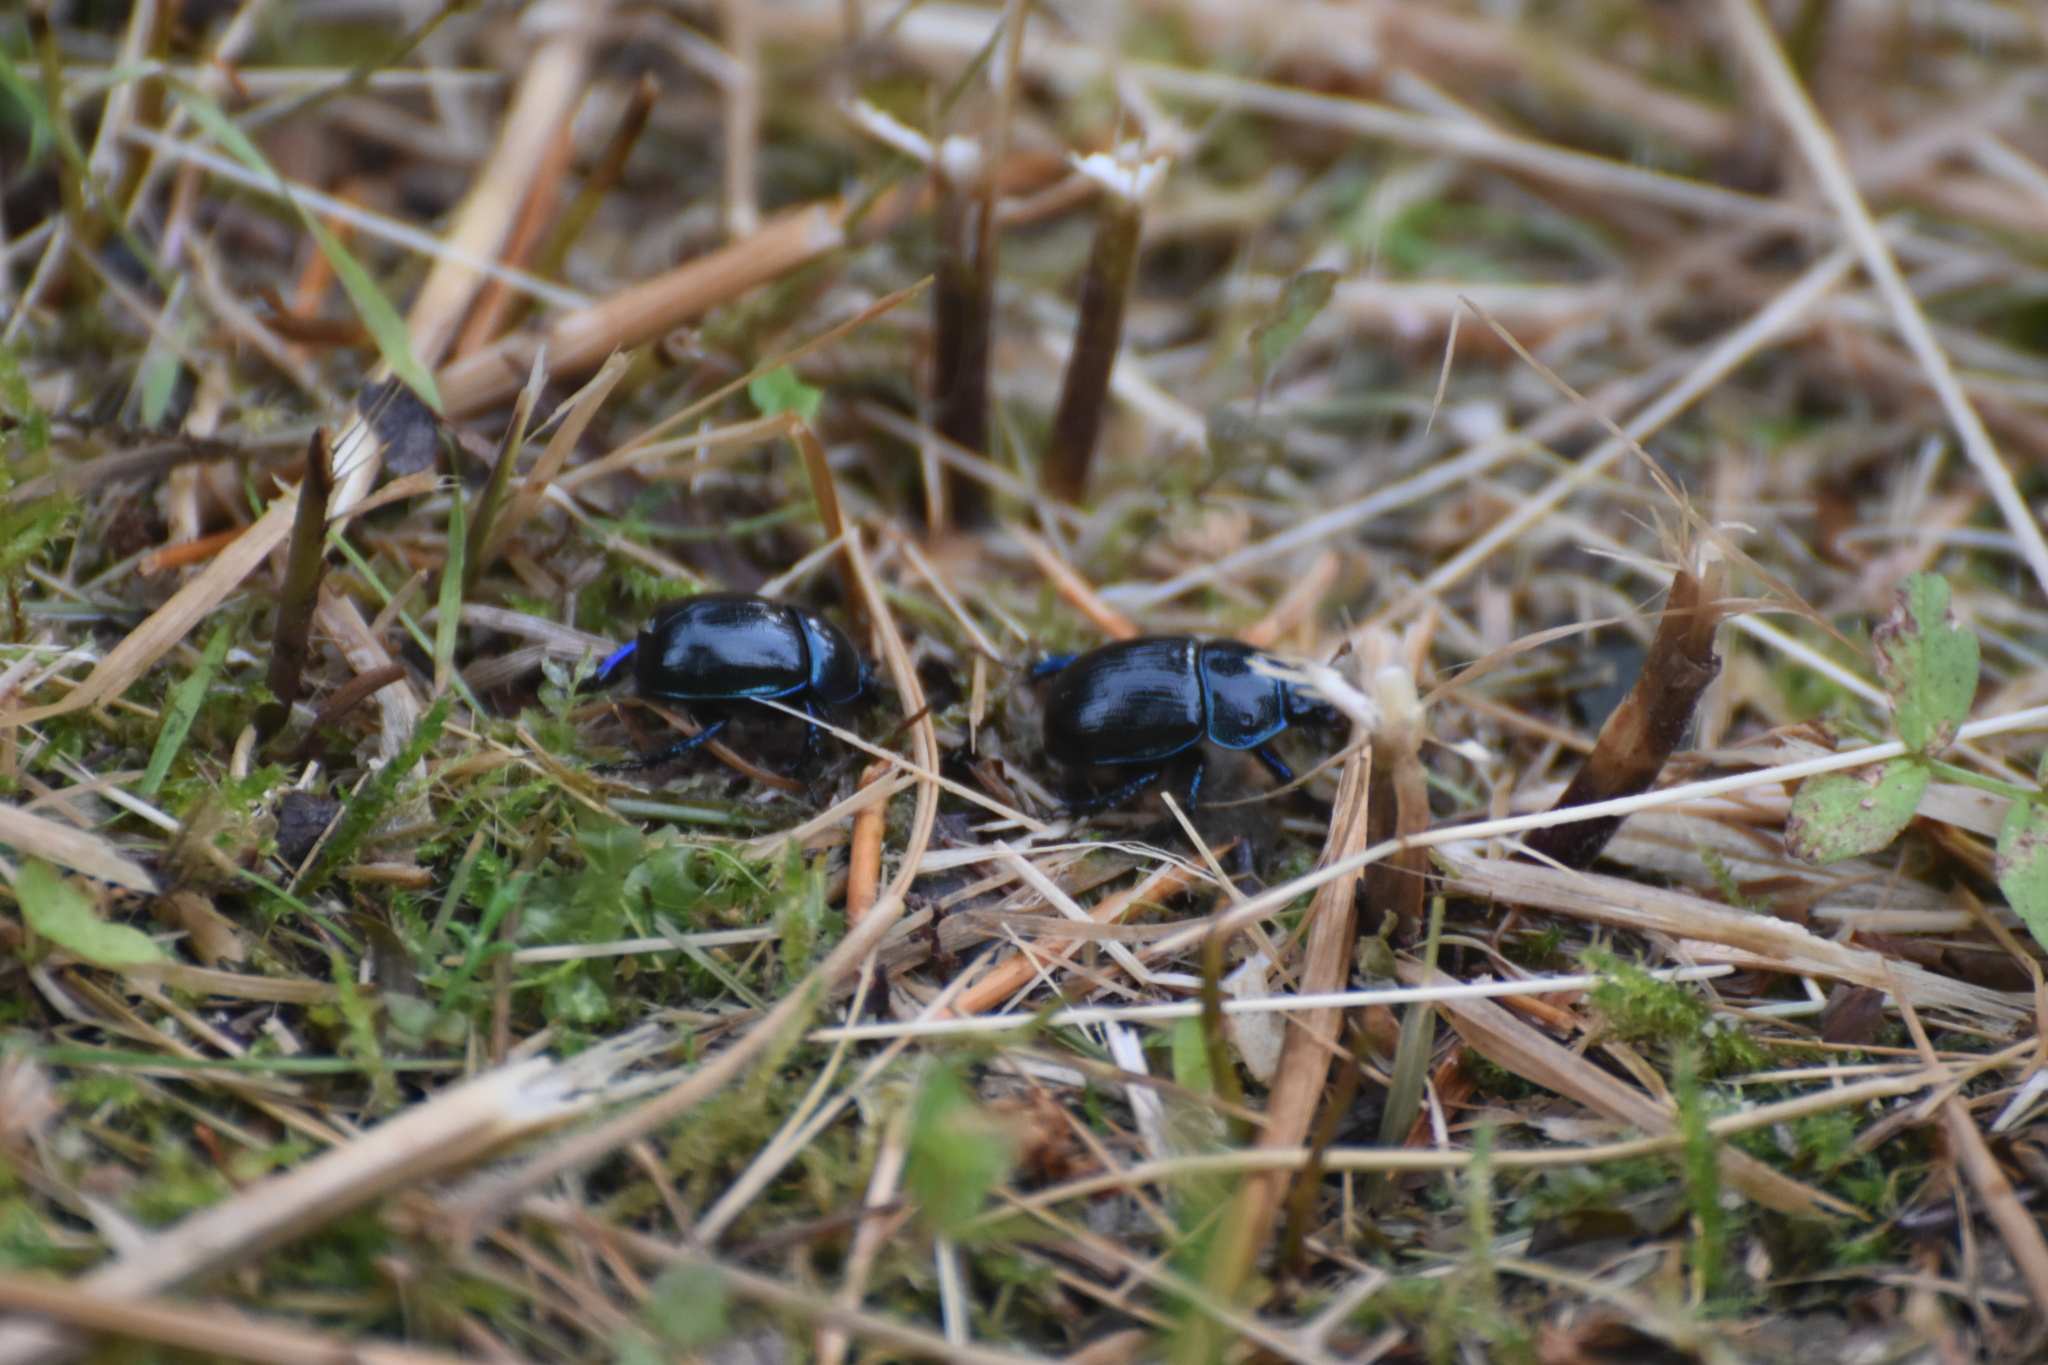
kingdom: Animalia
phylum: Arthropoda
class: Insecta
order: Coleoptera
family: Geotrupidae
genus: Anoplotrupes
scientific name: Anoplotrupes stercorosus
